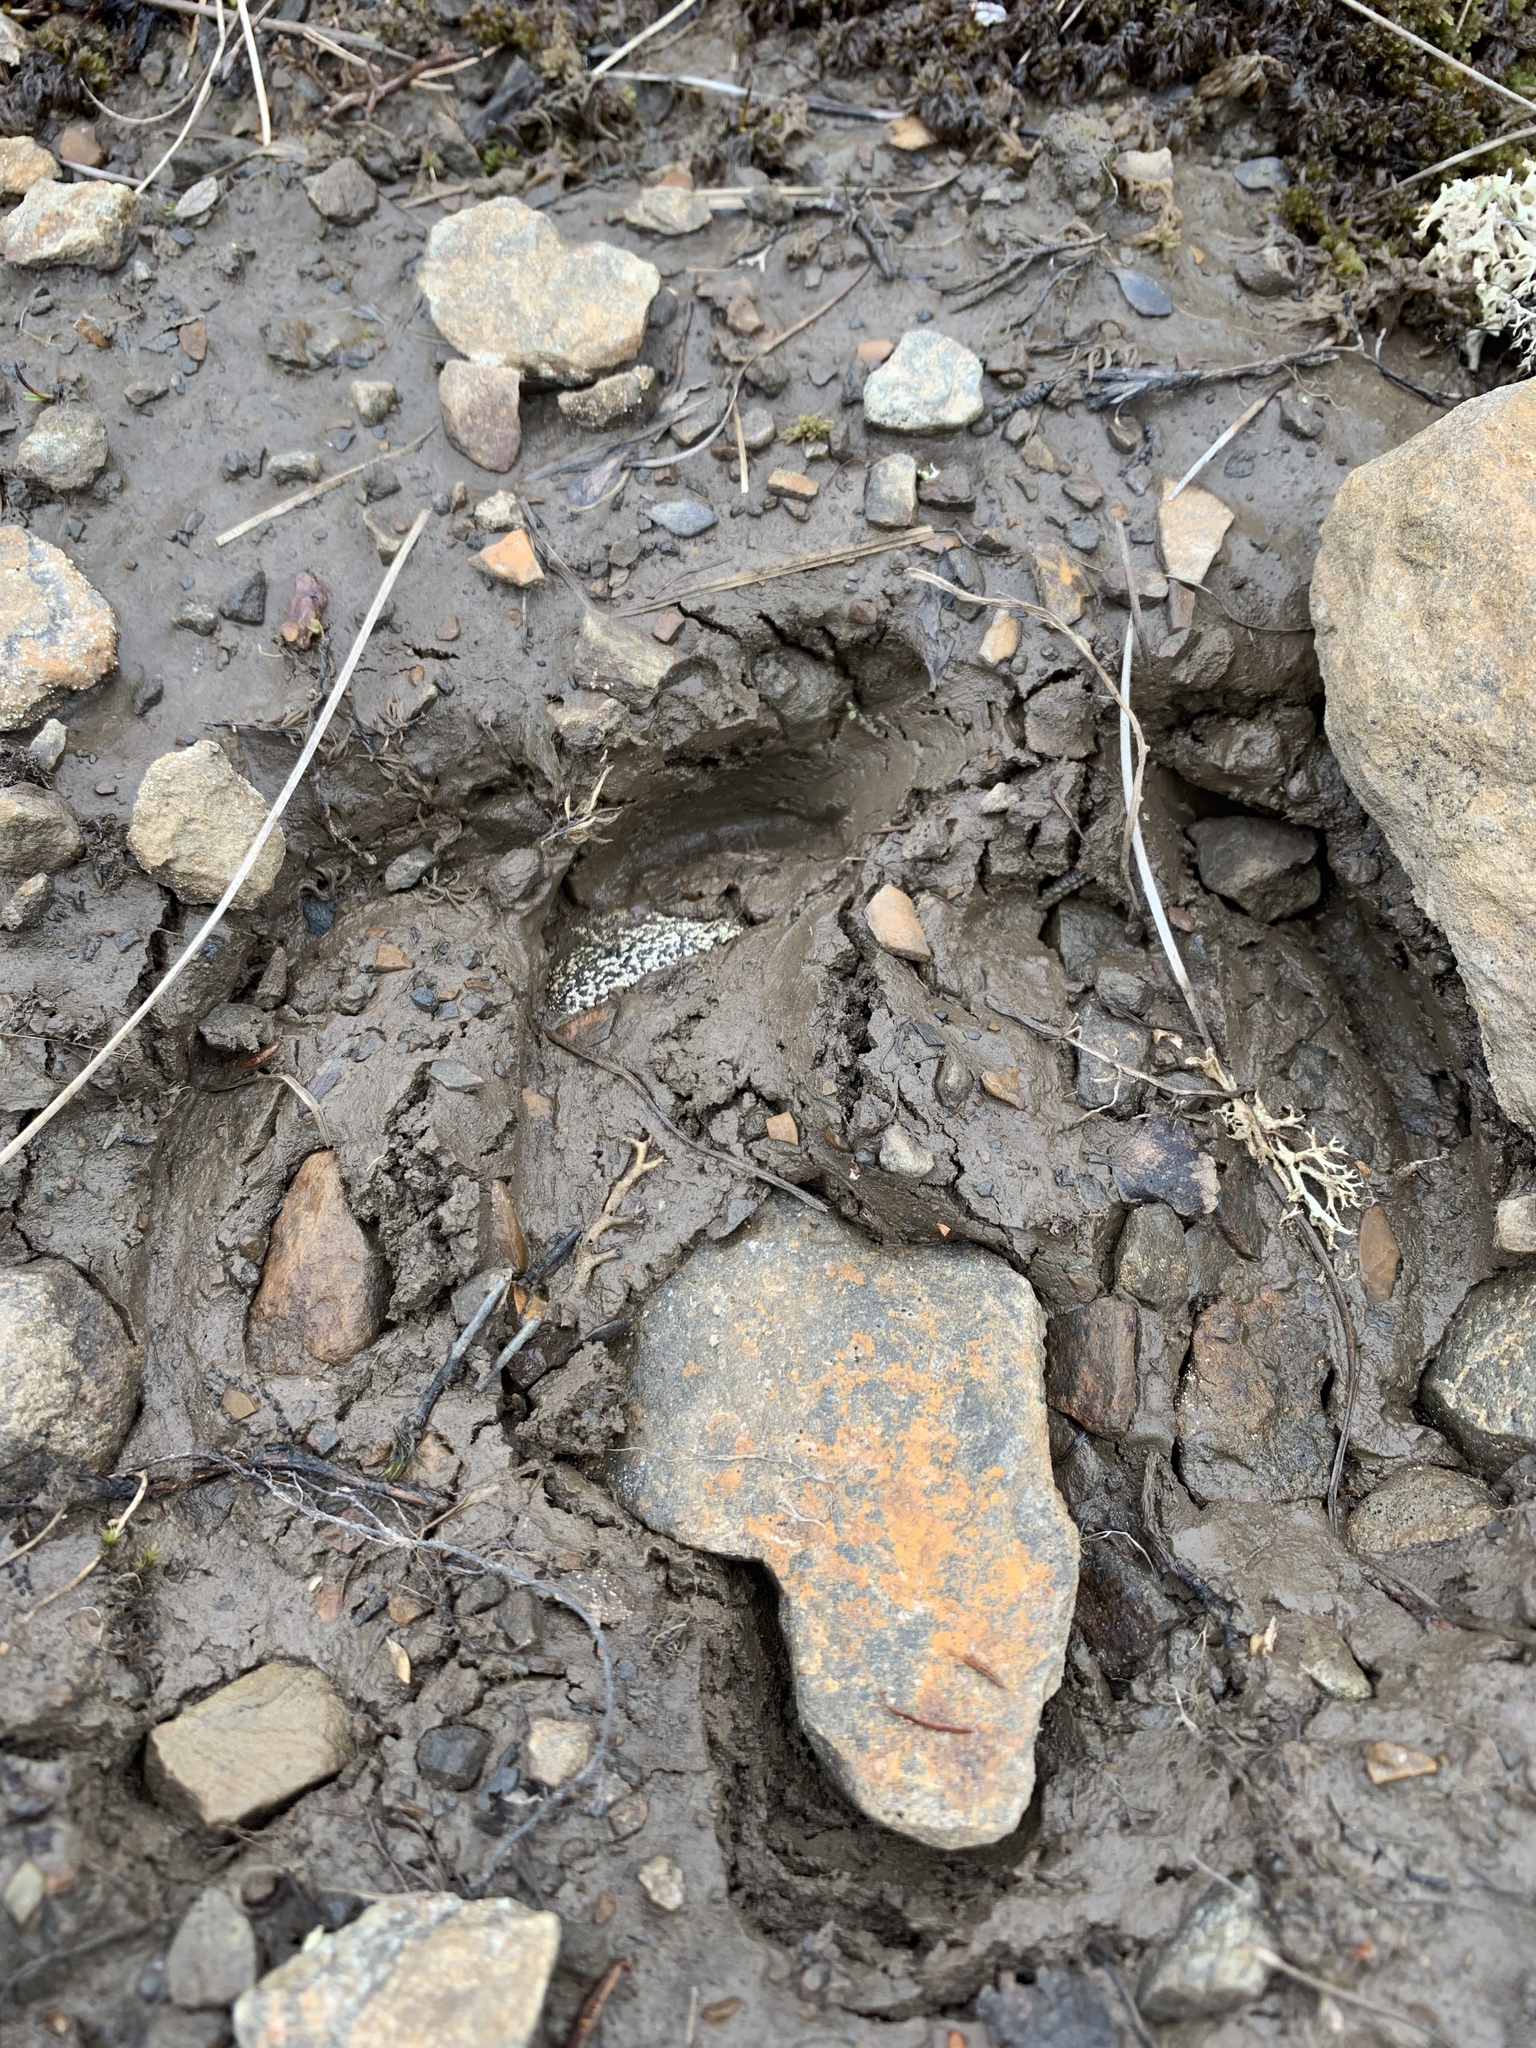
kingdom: Animalia
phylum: Chordata
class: Mammalia
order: Artiodactyla
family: Cervidae
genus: Rangifer
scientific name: Rangifer tarandus
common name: Reindeer
